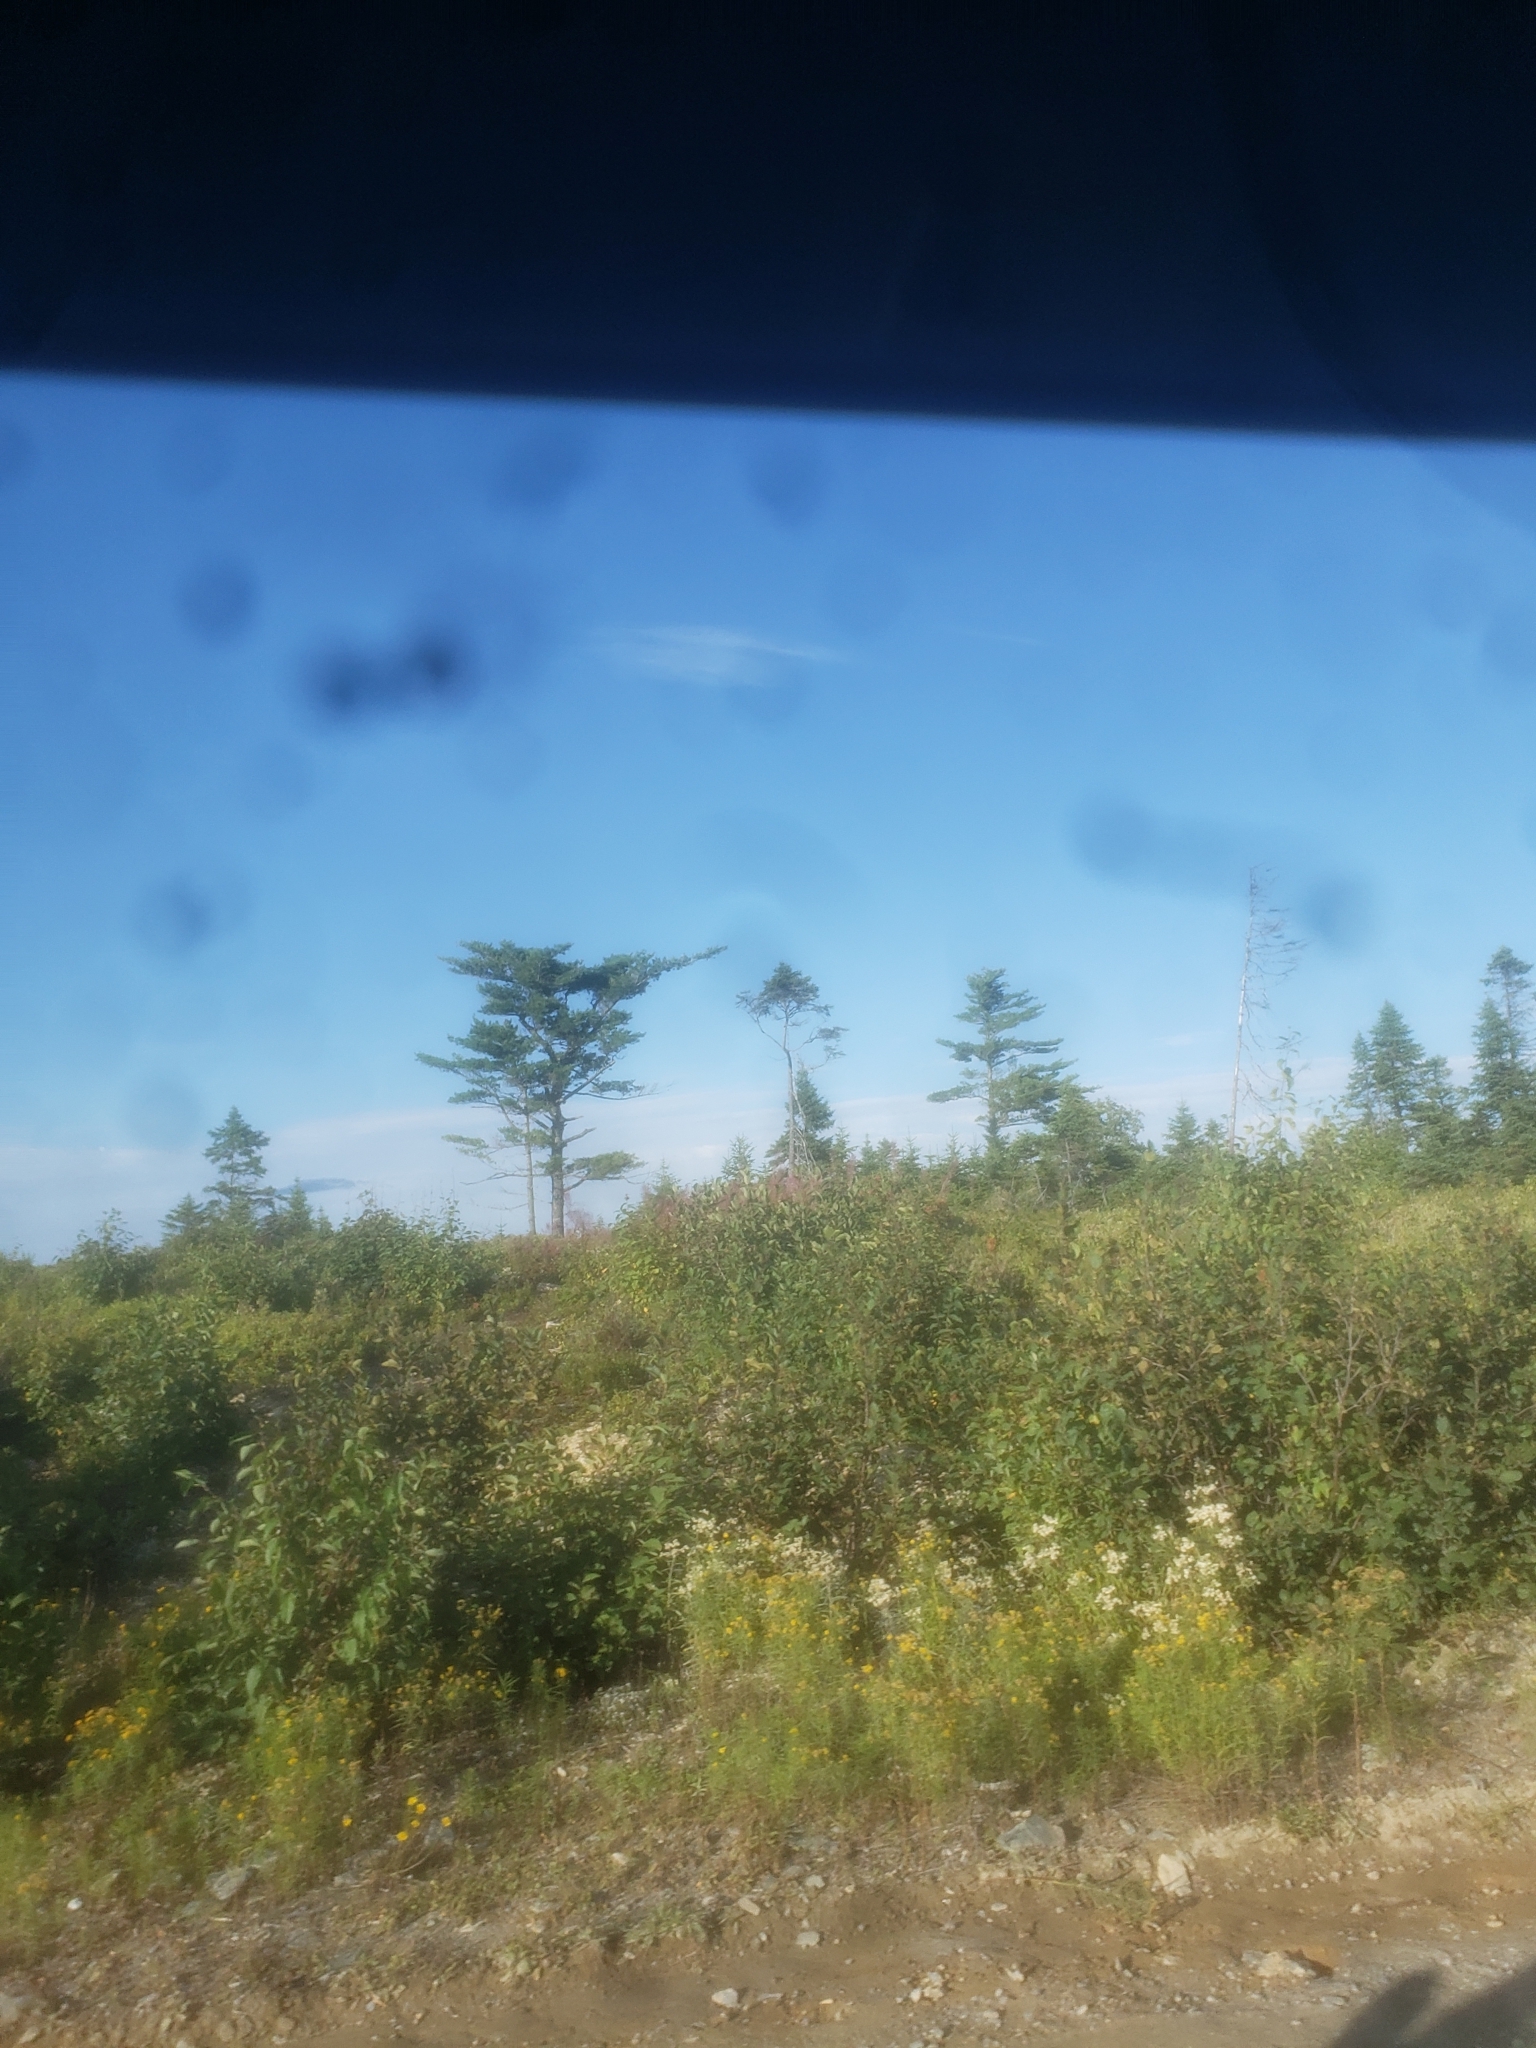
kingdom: Plantae
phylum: Tracheophyta
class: Pinopsida
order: Pinales
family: Pinaceae
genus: Pinus
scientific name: Pinus strobus
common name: Weymouth pine
